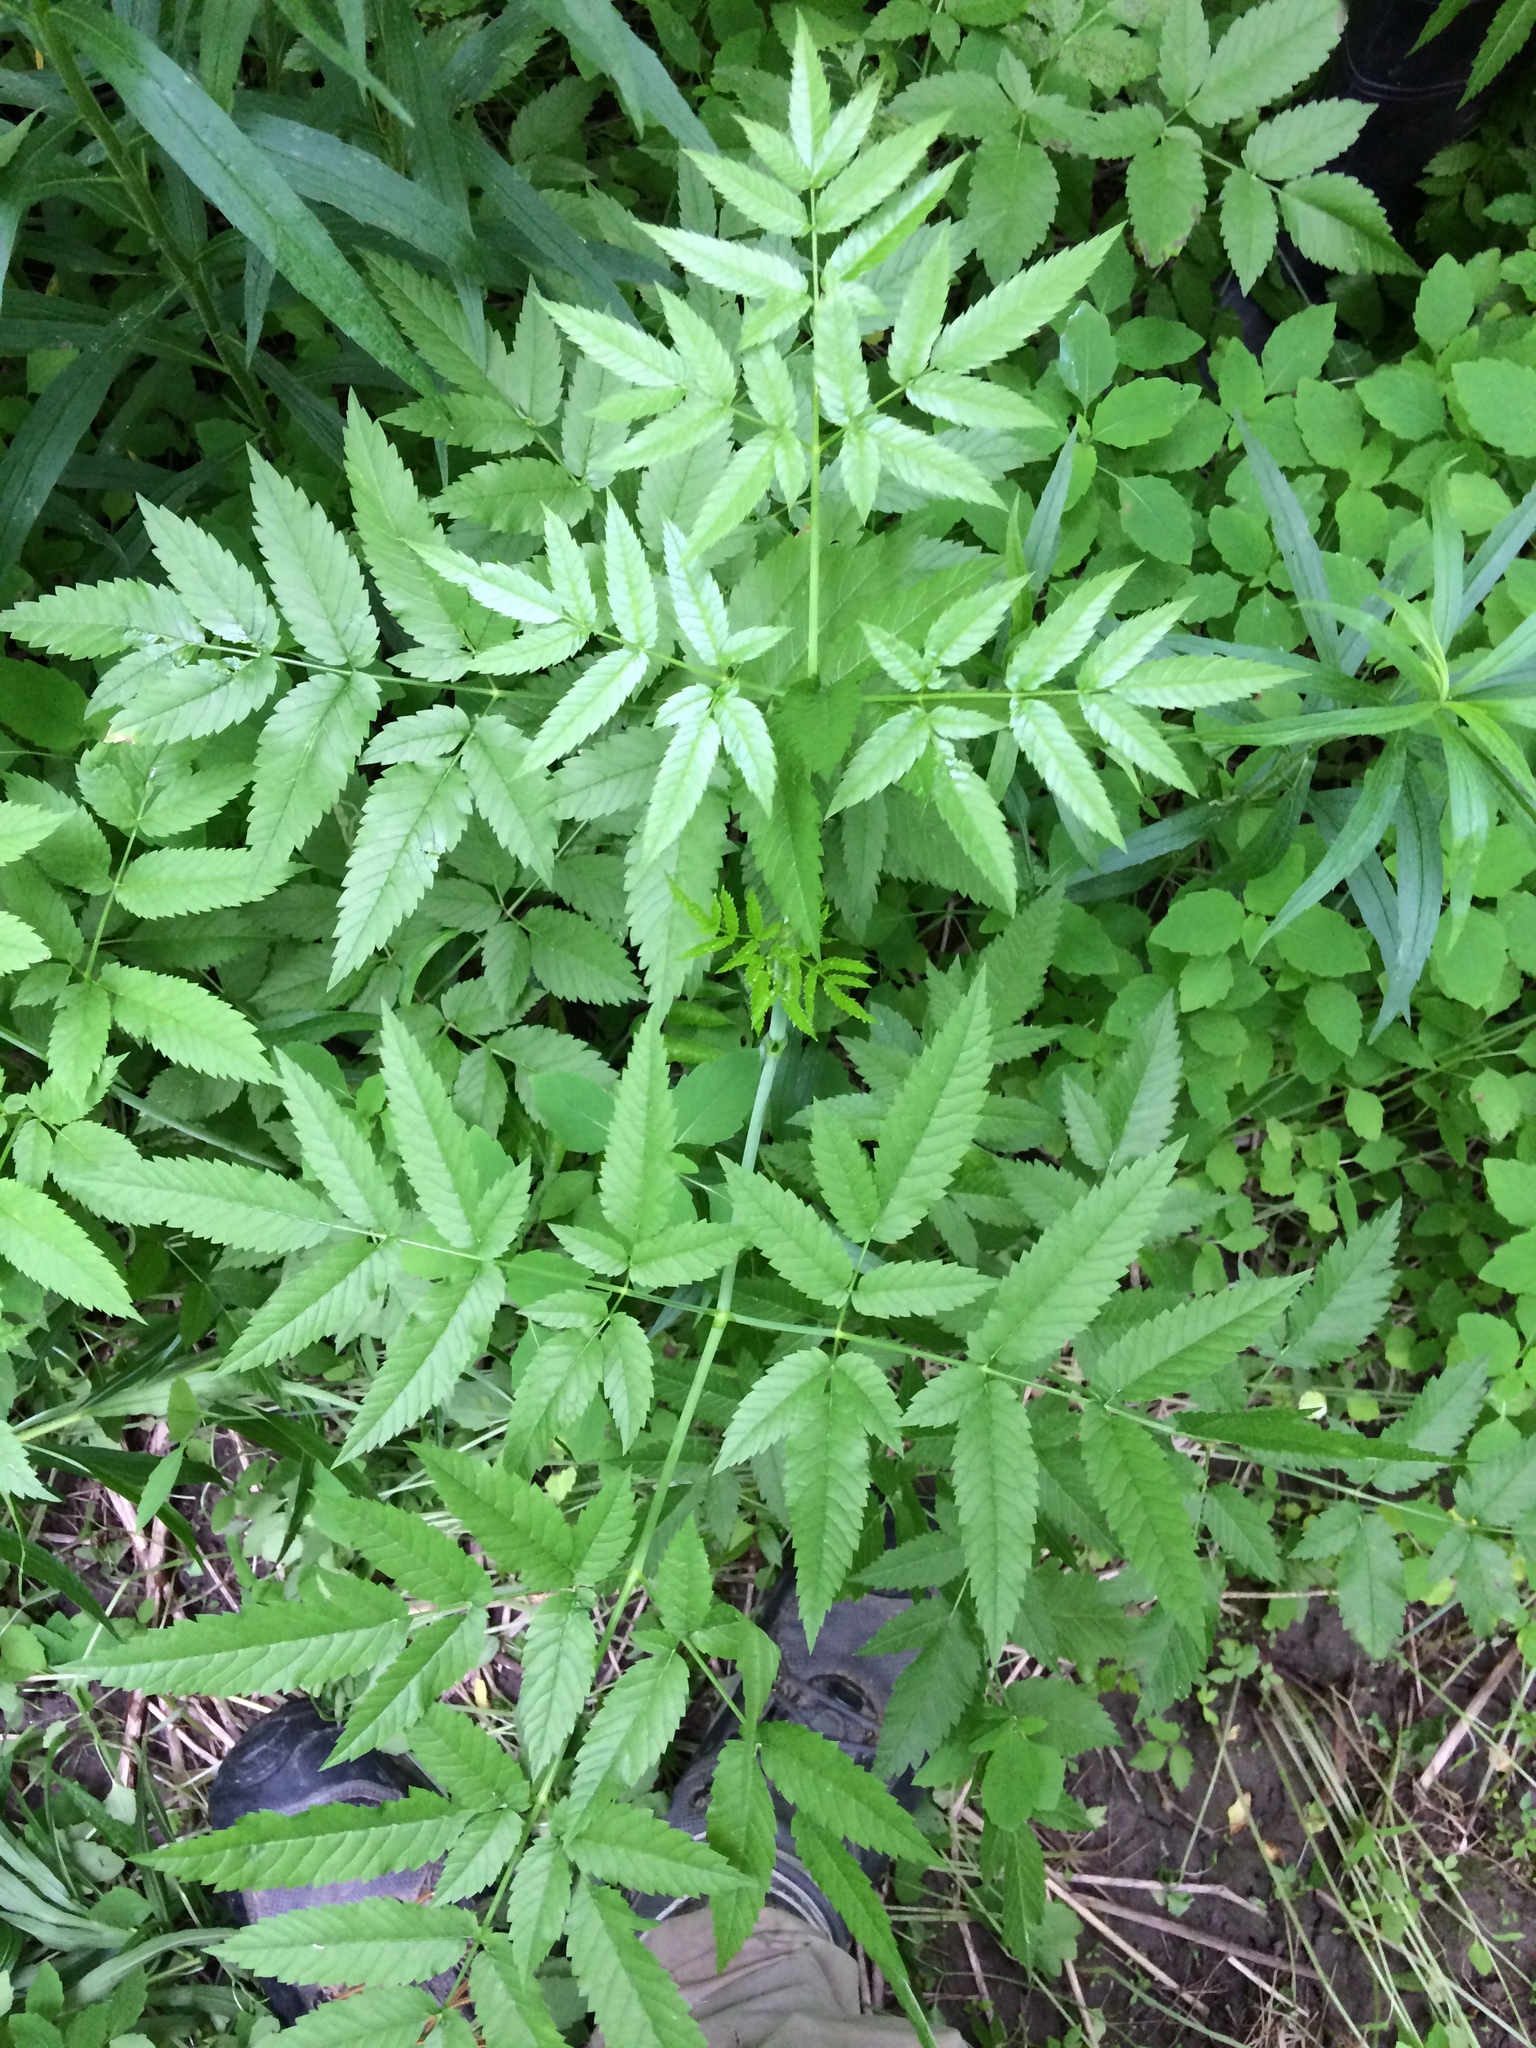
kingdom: Plantae
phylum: Tracheophyta
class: Magnoliopsida
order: Apiales
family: Apiaceae
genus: Cicuta
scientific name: Cicuta maculata
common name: Spotted cowbane
